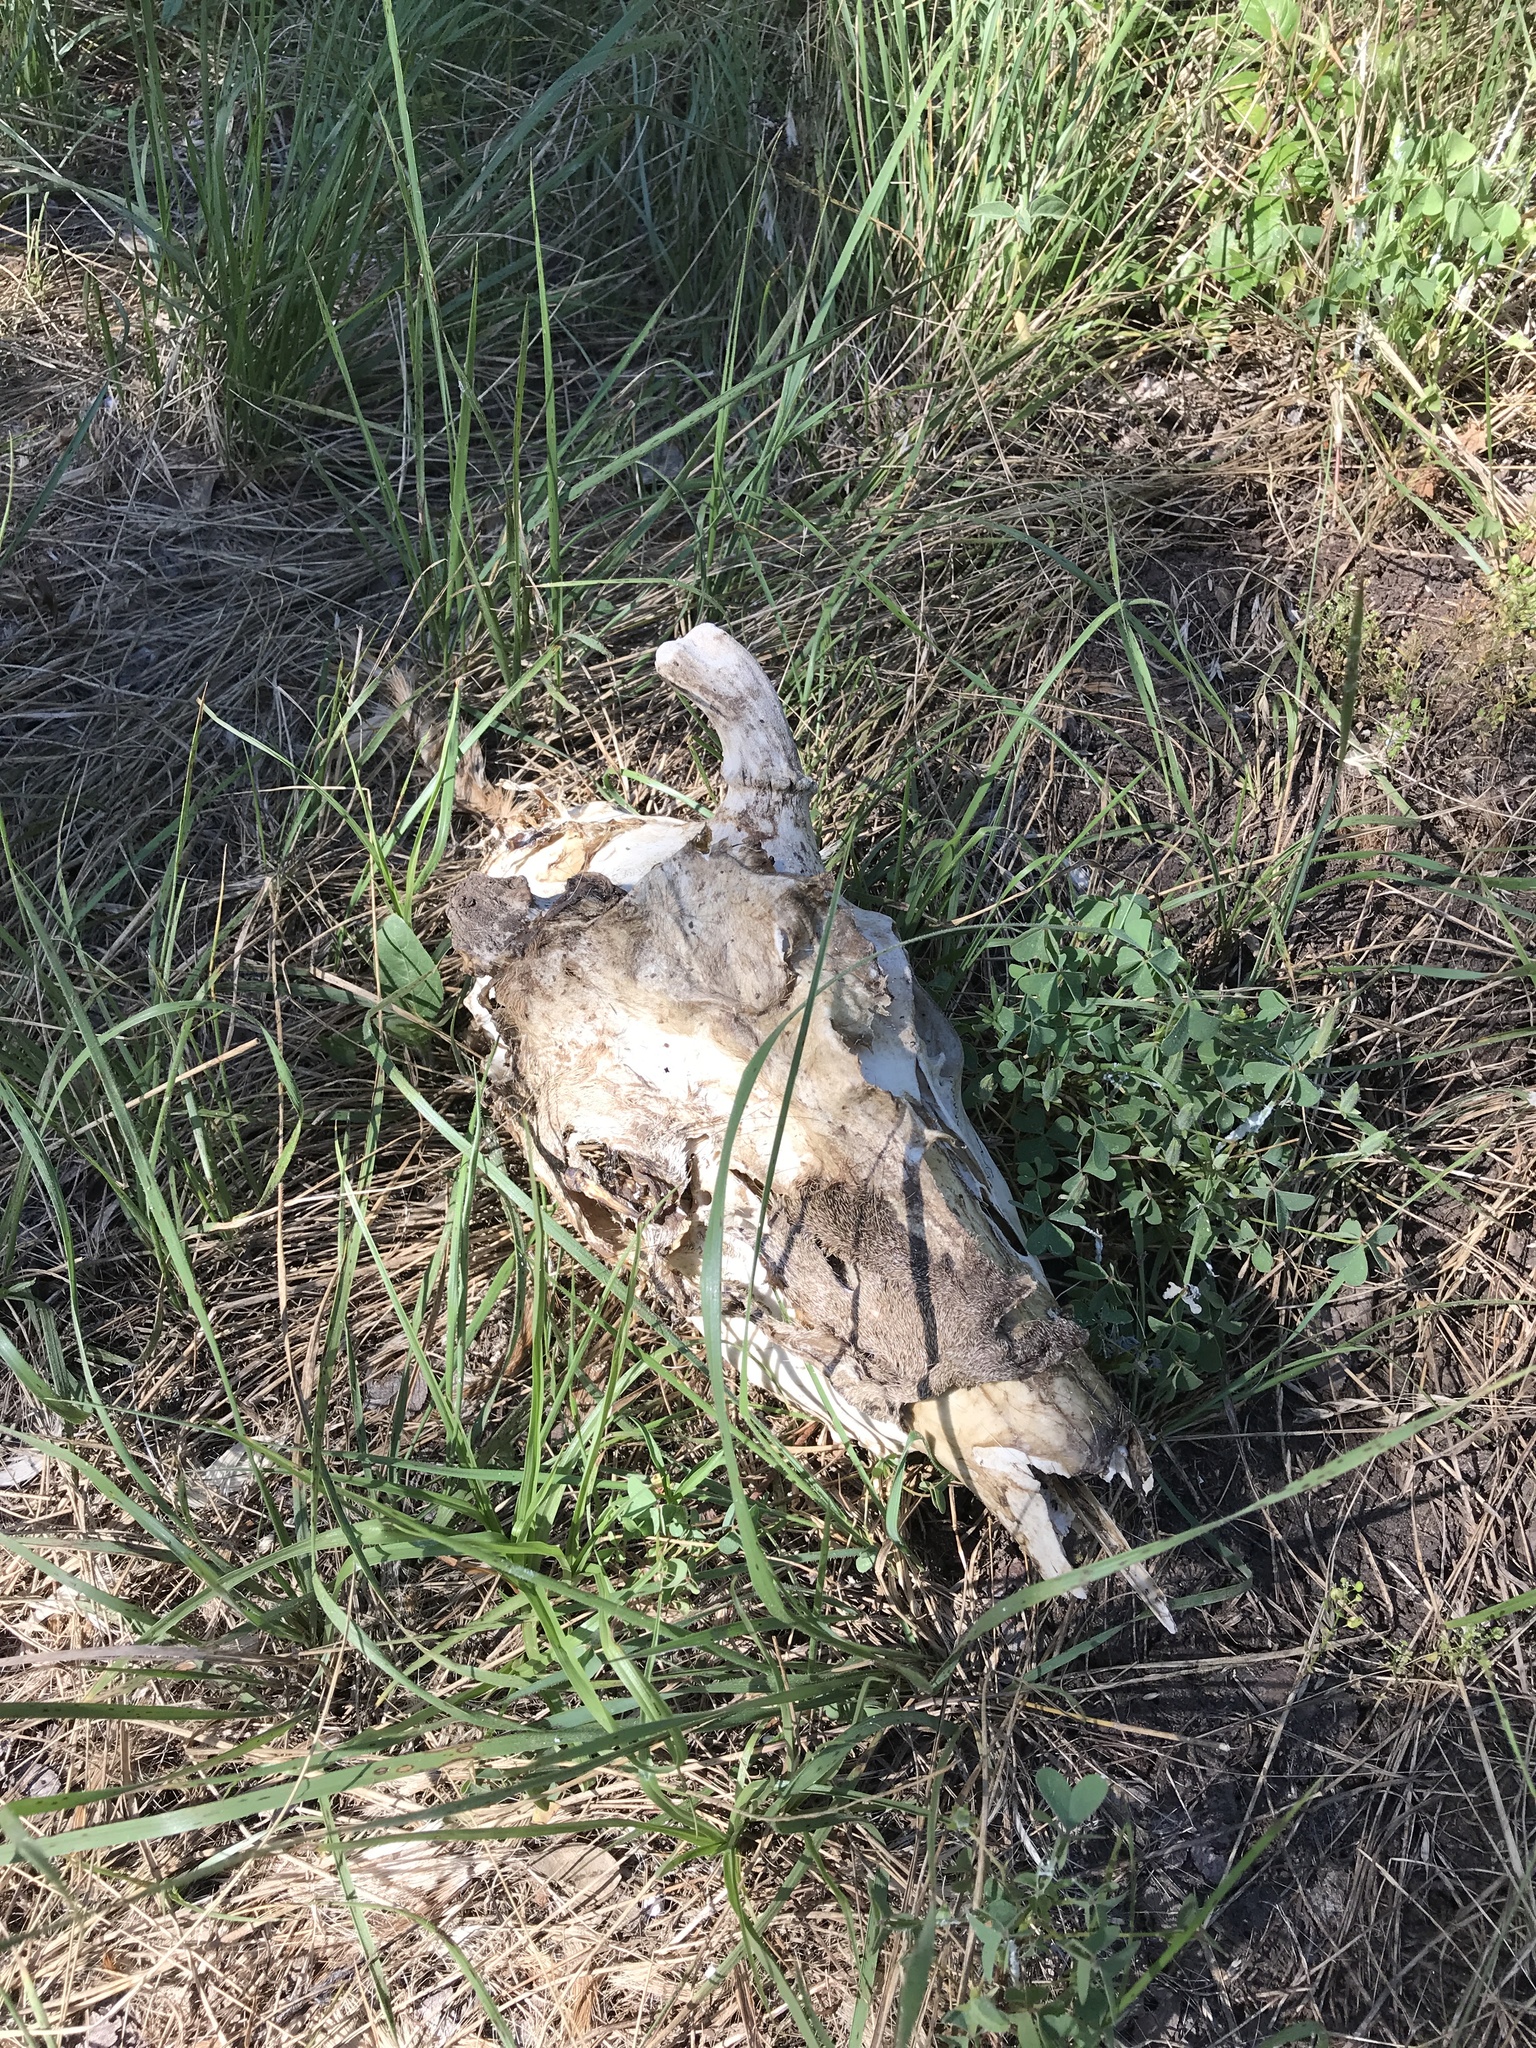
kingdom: Animalia
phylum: Chordata
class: Mammalia
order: Artiodactyla
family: Cervidae
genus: Odocoileus
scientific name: Odocoileus virginianus
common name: White-tailed deer
